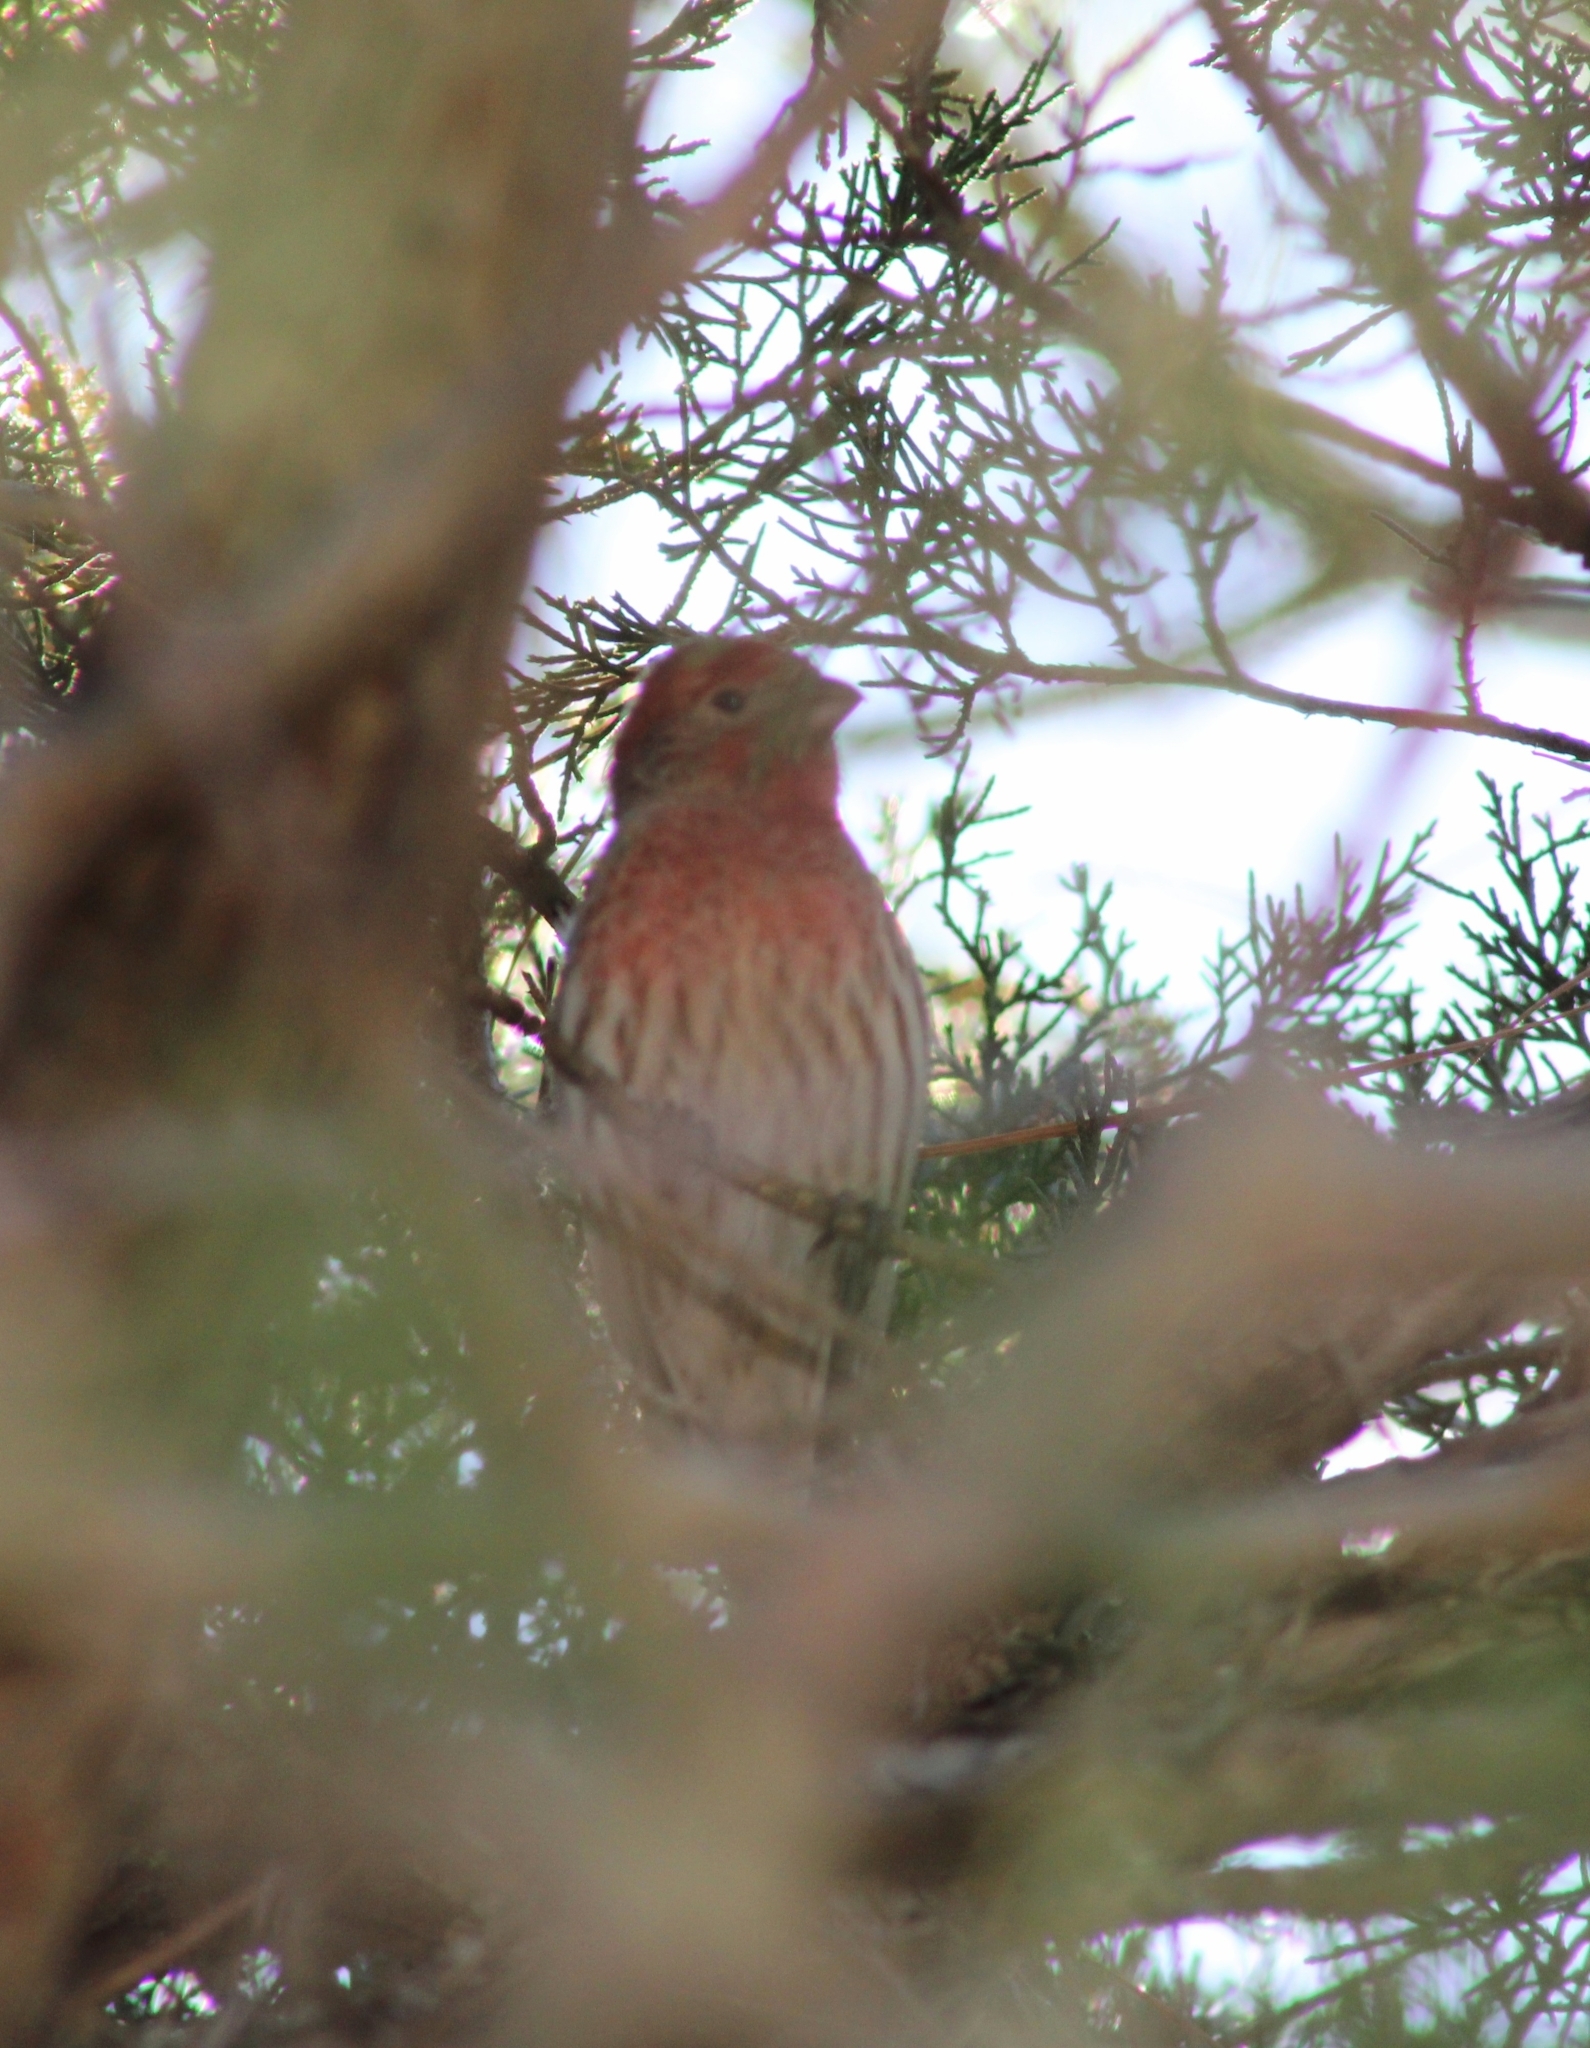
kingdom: Animalia
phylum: Chordata
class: Aves
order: Passeriformes
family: Fringillidae
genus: Haemorhous
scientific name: Haemorhous mexicanus
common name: House finch
